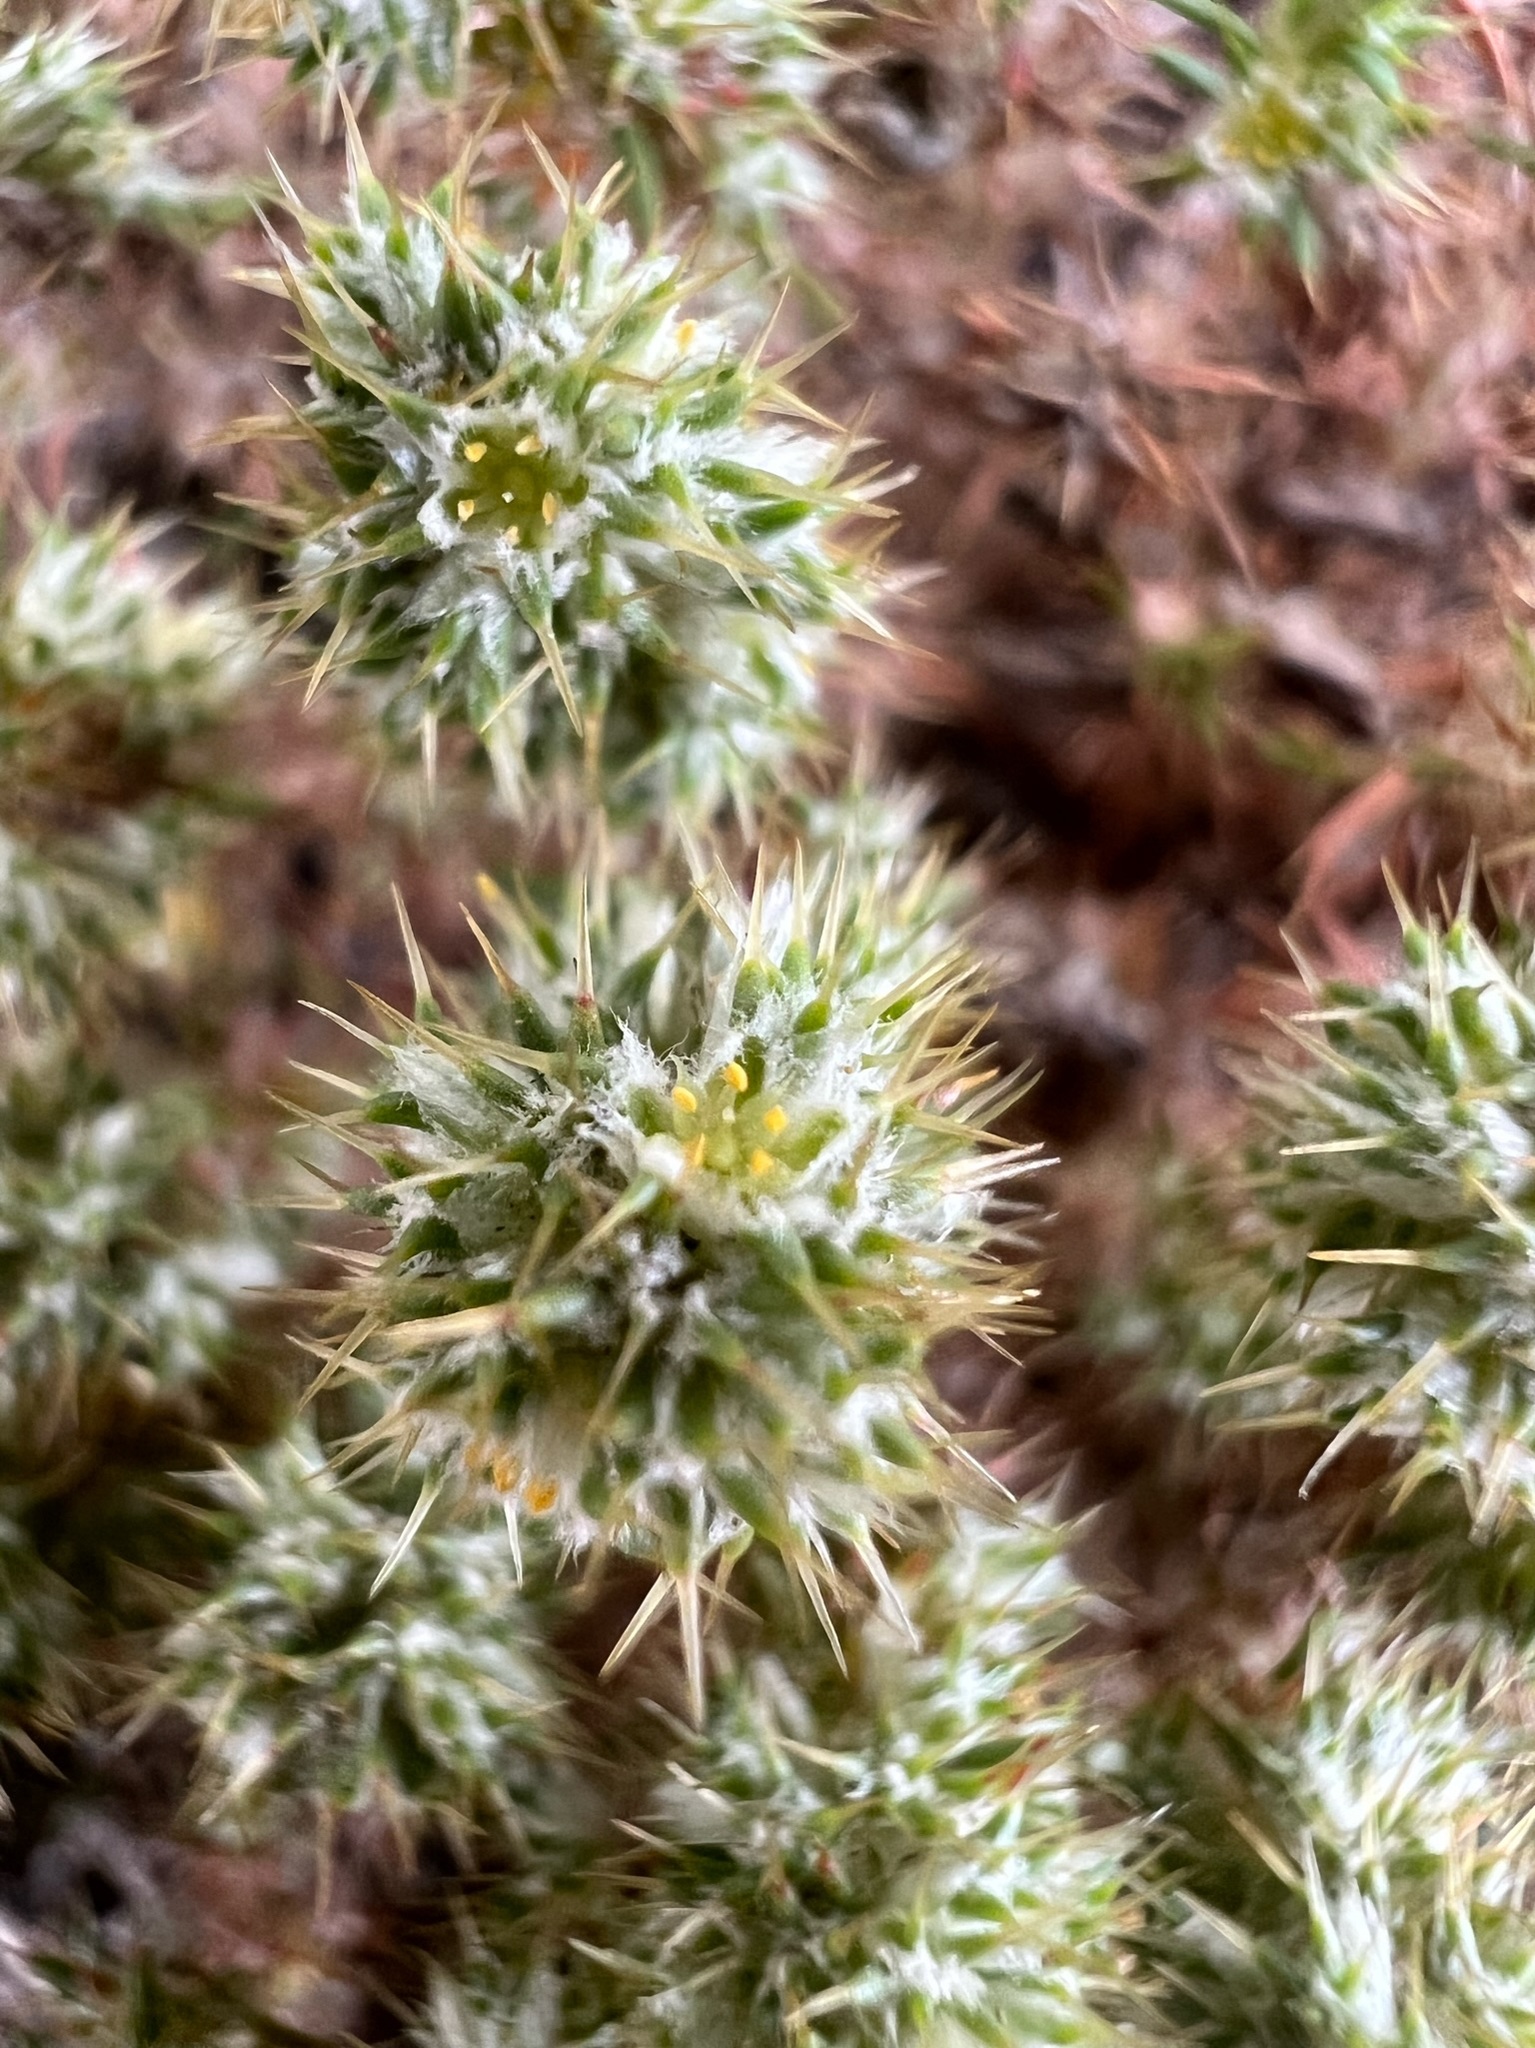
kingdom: Plantae
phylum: Tracheophyta
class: Magnoliopsida
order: Caryophyllales
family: Caryophyllaceae
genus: Cardionema
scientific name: Cardionema ramosissima
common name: Sandcarpet
